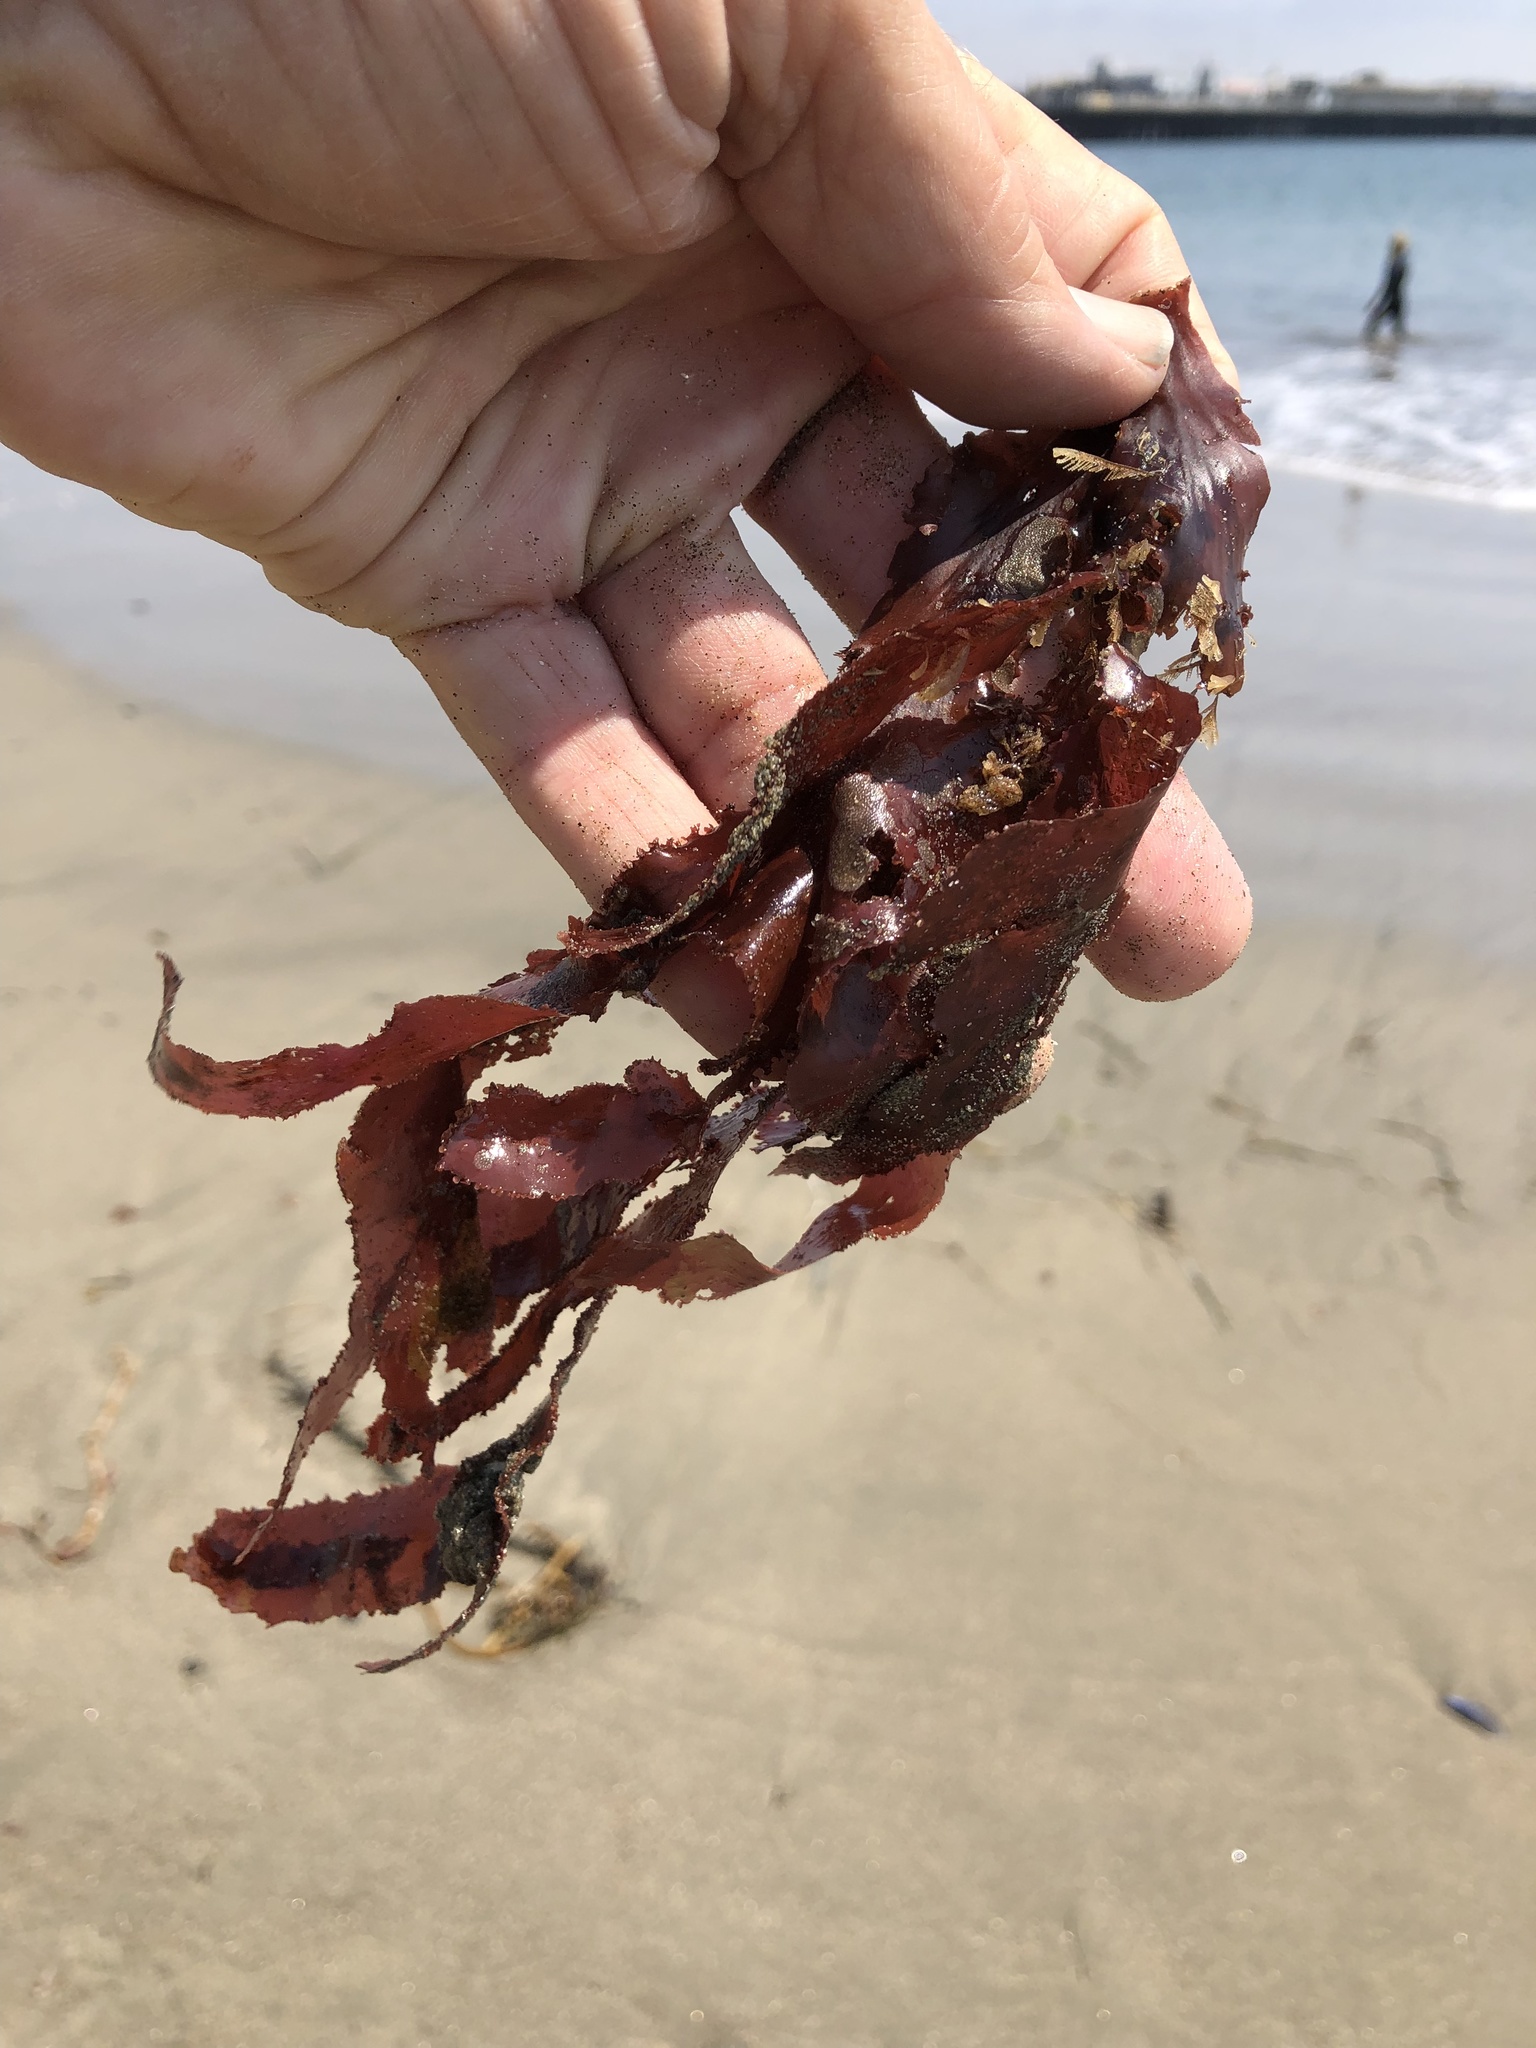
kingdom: Plantae
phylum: Rhodophyta
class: Florideophyceae
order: Ceramiales
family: Delesseriaceae
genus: Cryptopleura
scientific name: Cryptopleura ruprechtiana
